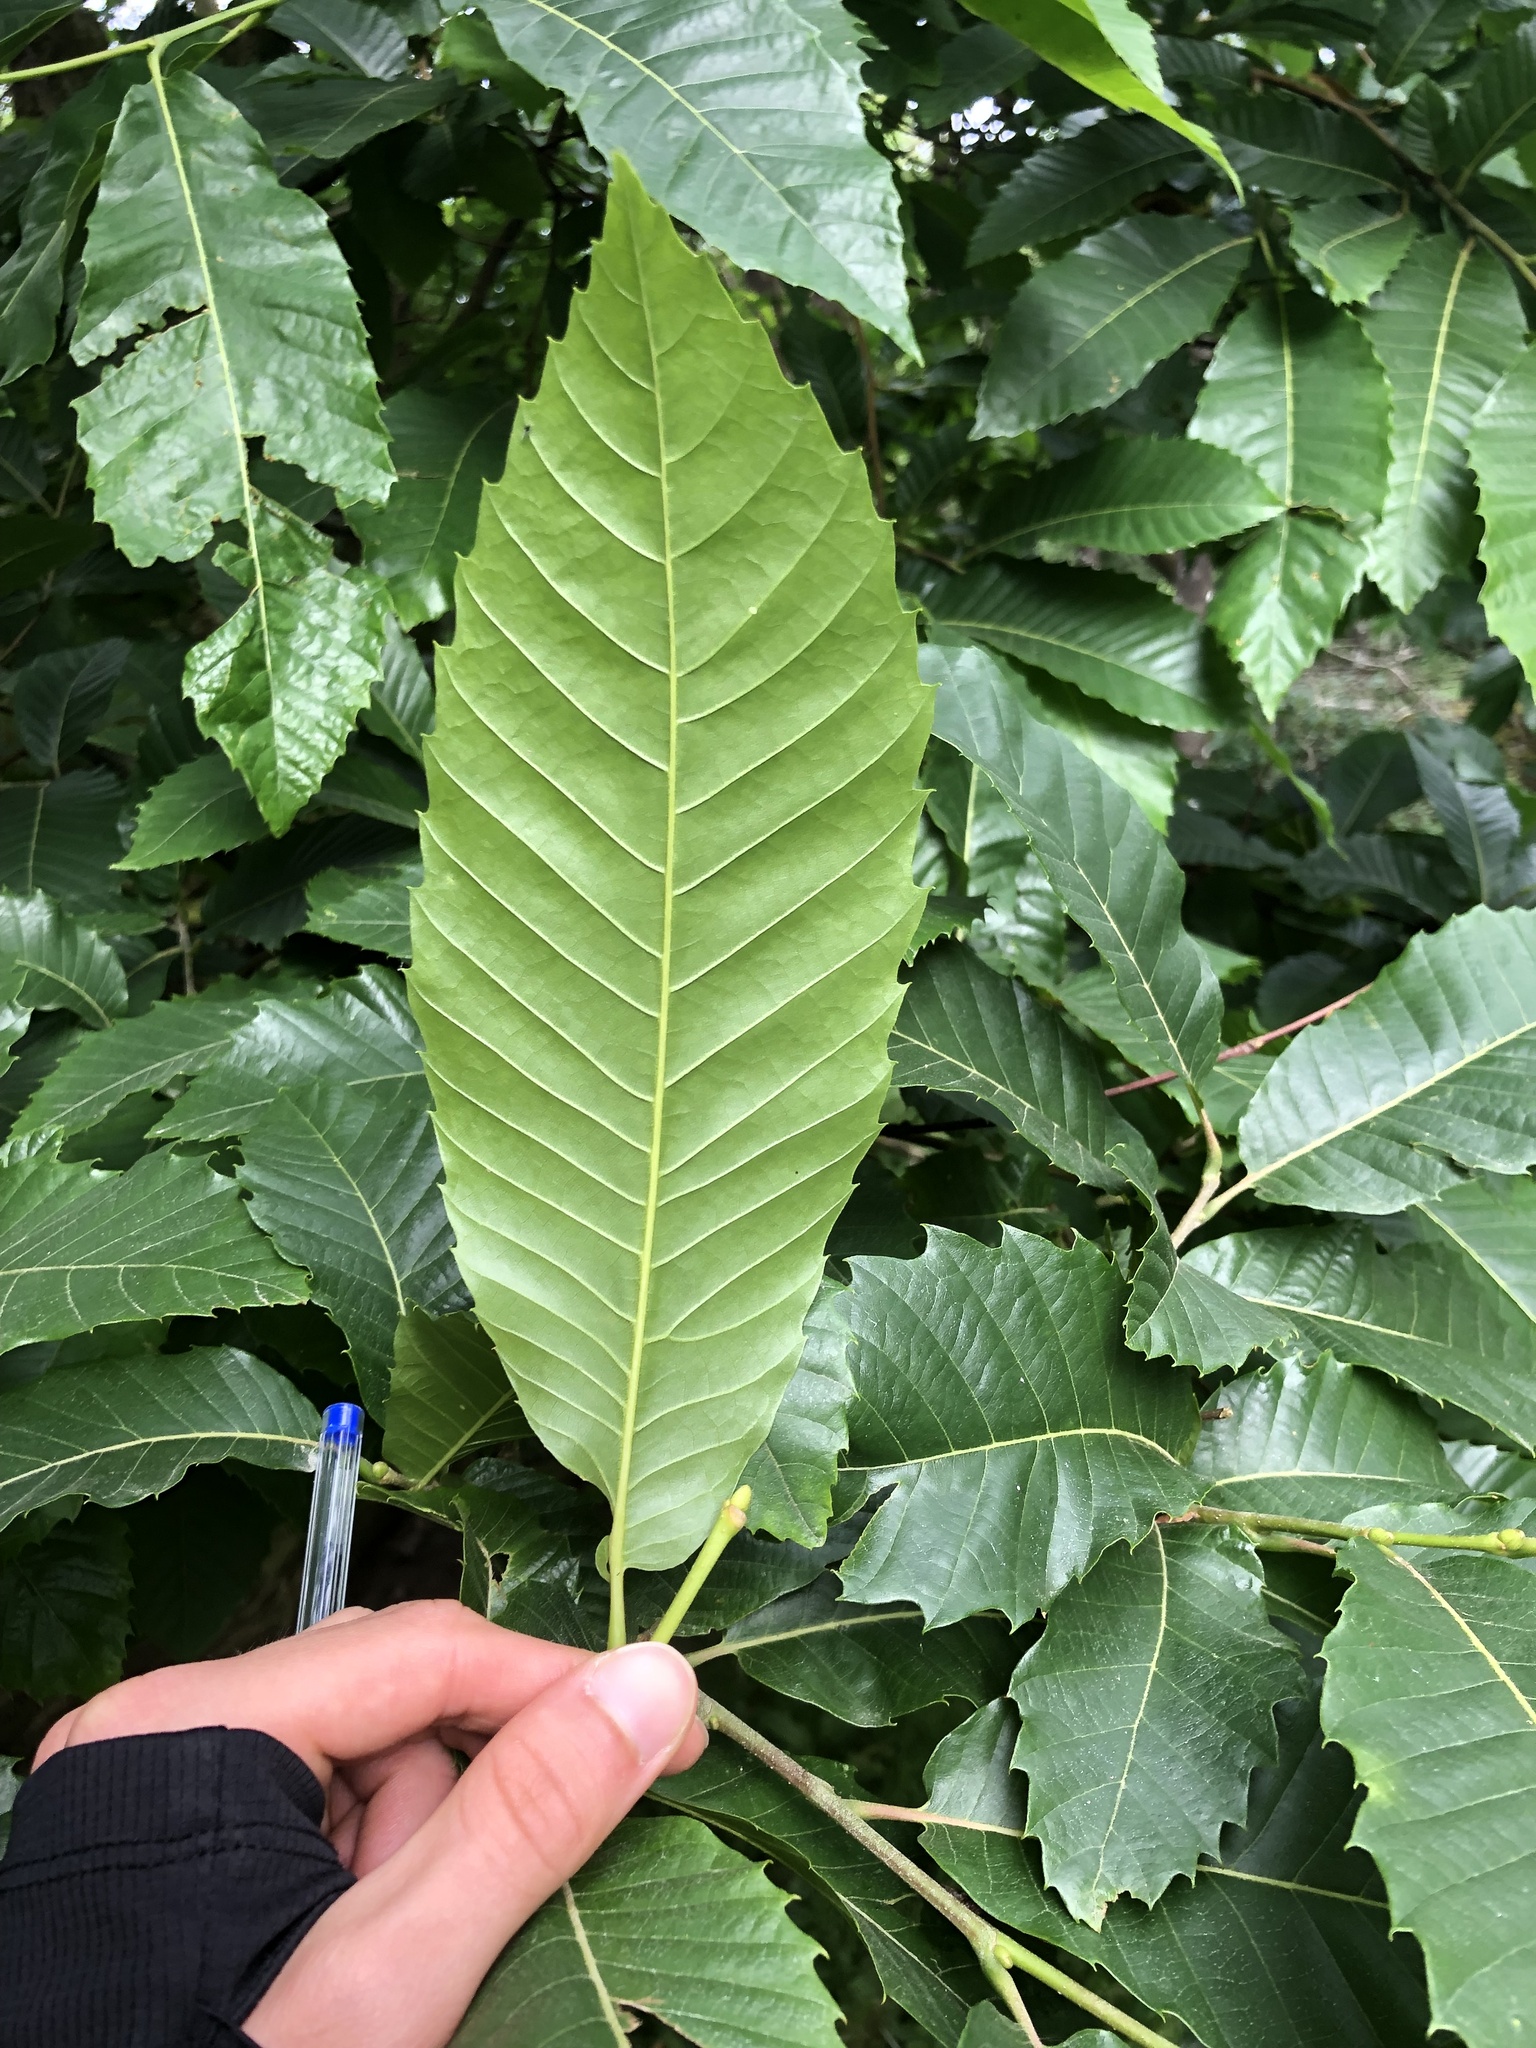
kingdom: Plantae
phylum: Tracheophyta
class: Magnoliopsida
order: Fagales
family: Fagaceae
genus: Castanea
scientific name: Castanea sativa
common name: Sweet chestnut
